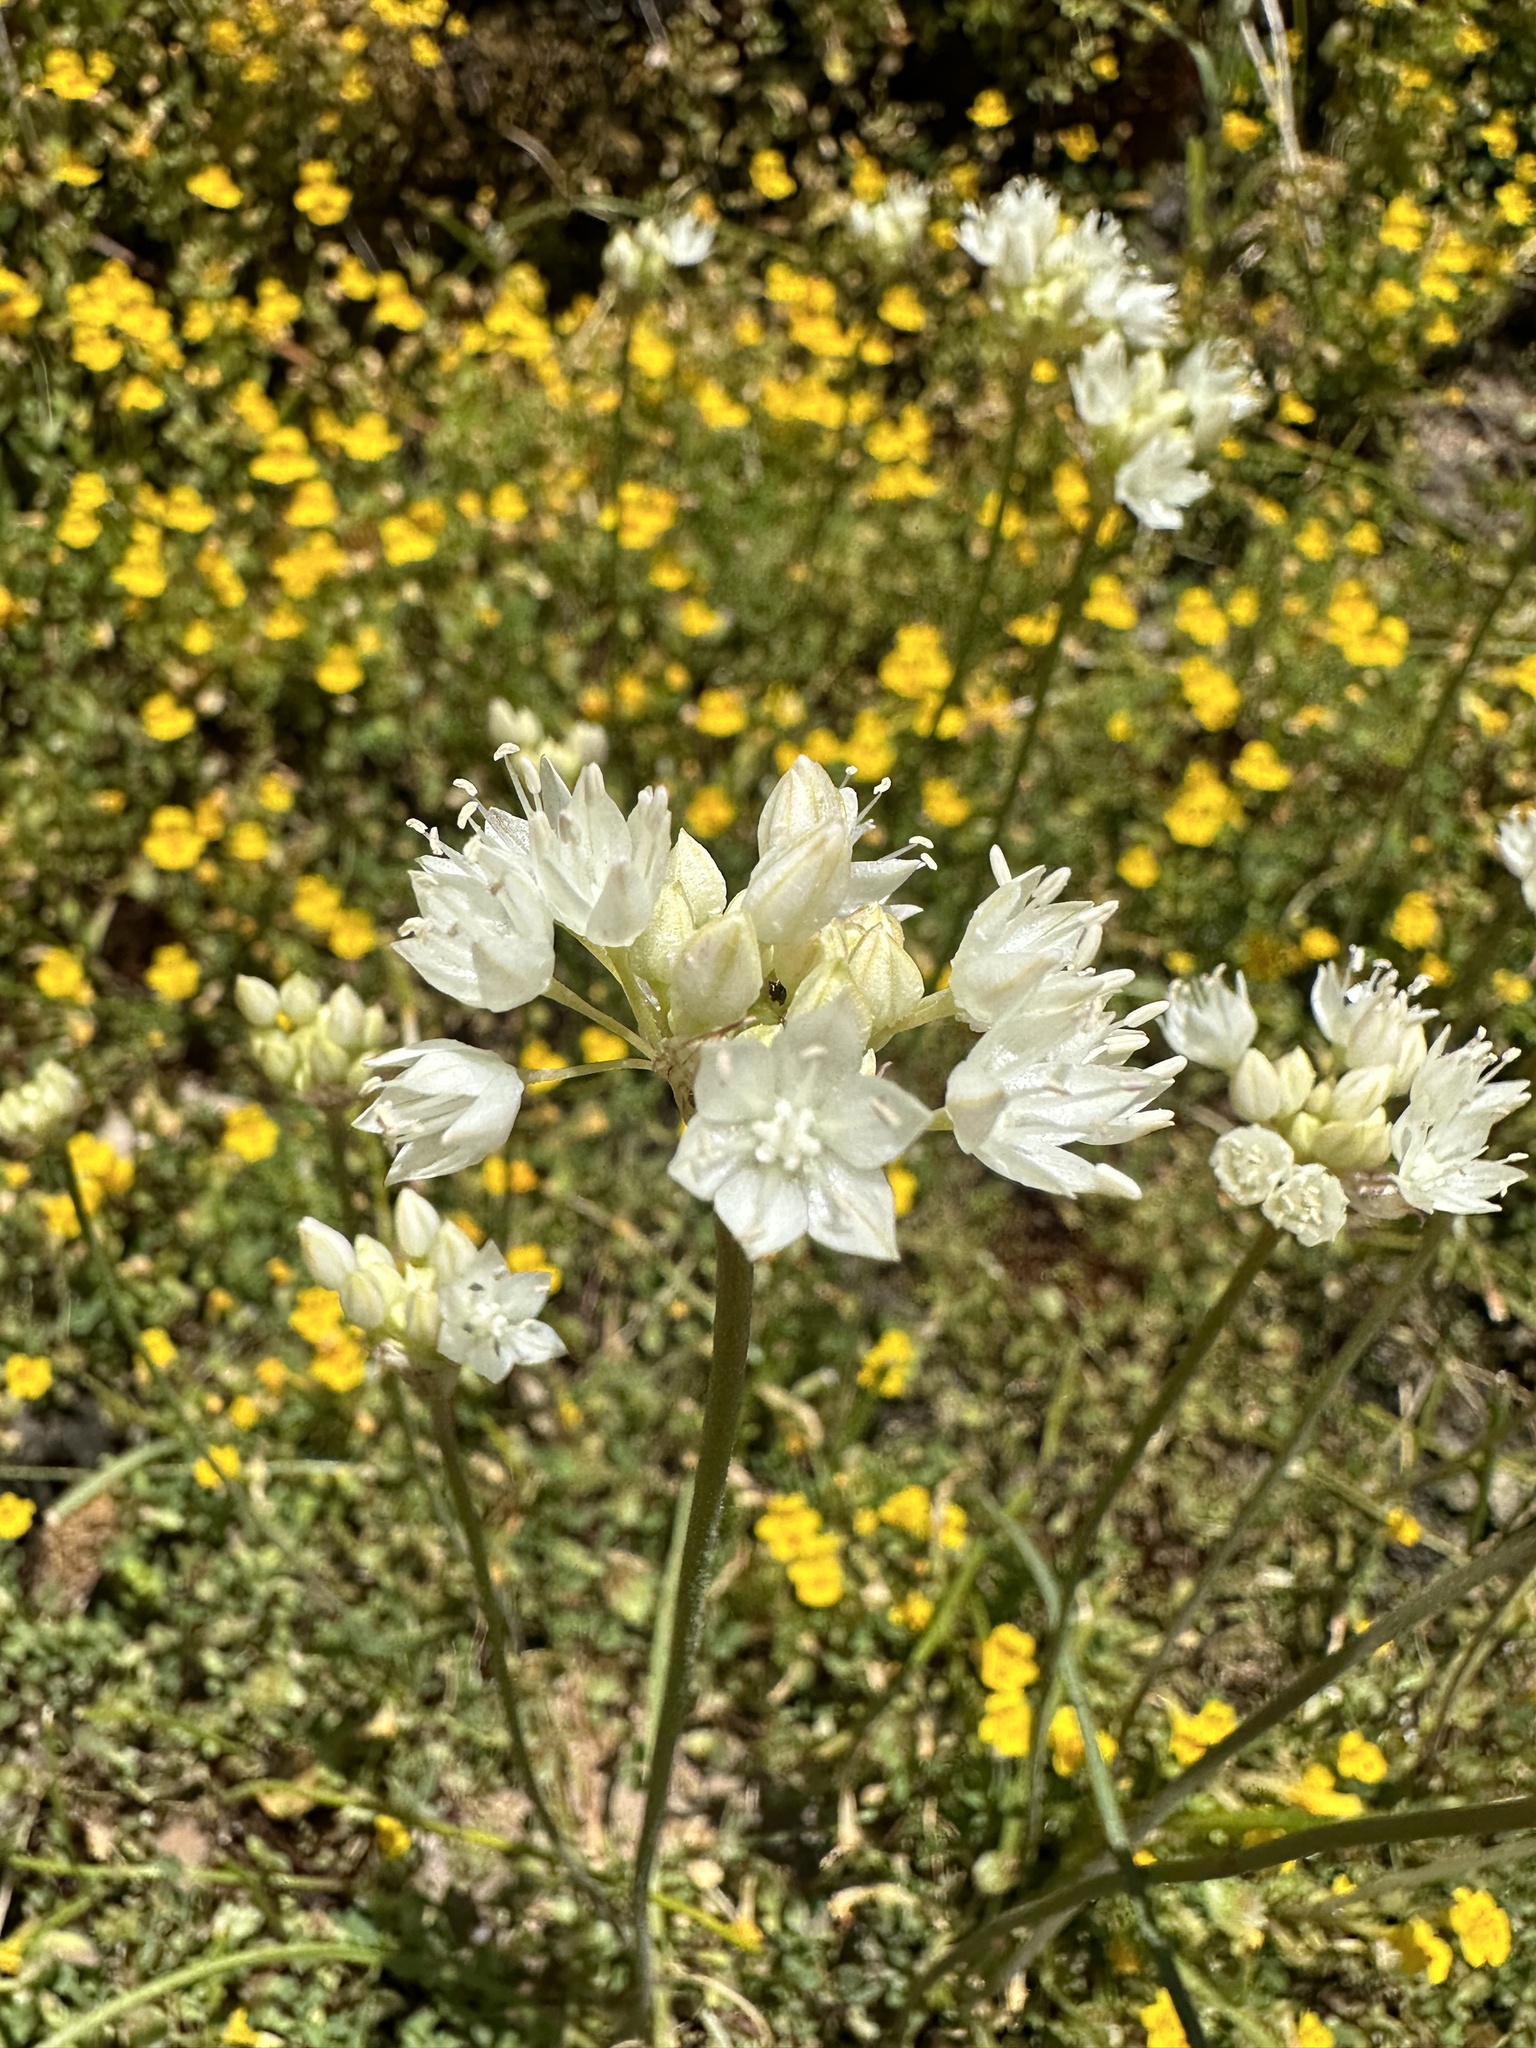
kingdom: Plantae
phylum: Tracheophyta
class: Liliopsida
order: Asparagales
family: Amaryllidaceae
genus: Allium
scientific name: Allium amplectens
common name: Narrow-leaved onion
